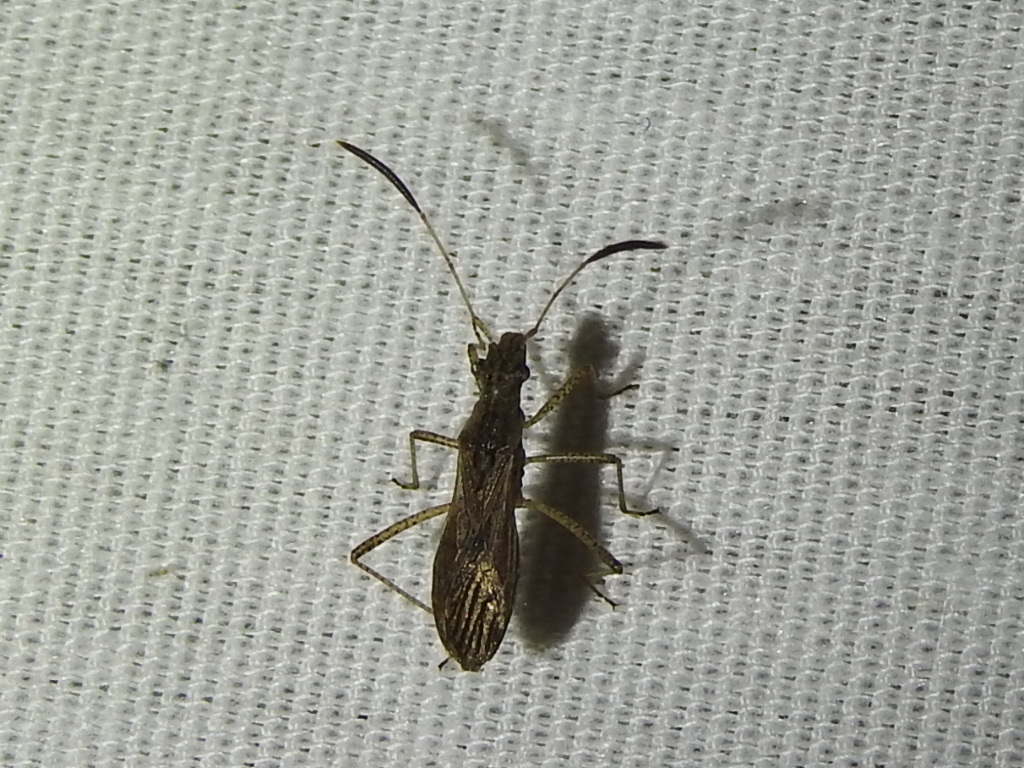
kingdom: Animalia
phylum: Arthropoda
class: Insecta
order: Hemiptera
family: Alydidae
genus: Esperanza
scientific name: Esperanza texana
